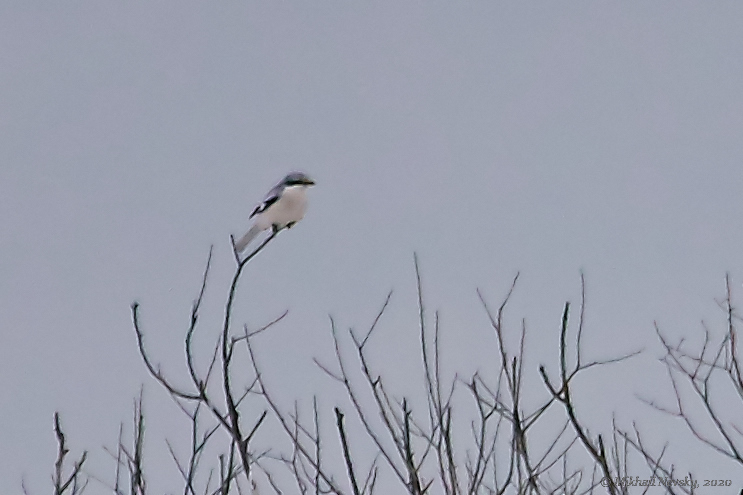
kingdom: Animalia
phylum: Chordata
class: Aves
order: Passeriformes
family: Laniidae
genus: Lanius
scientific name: Lanius excubitor
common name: Great grey shrike
